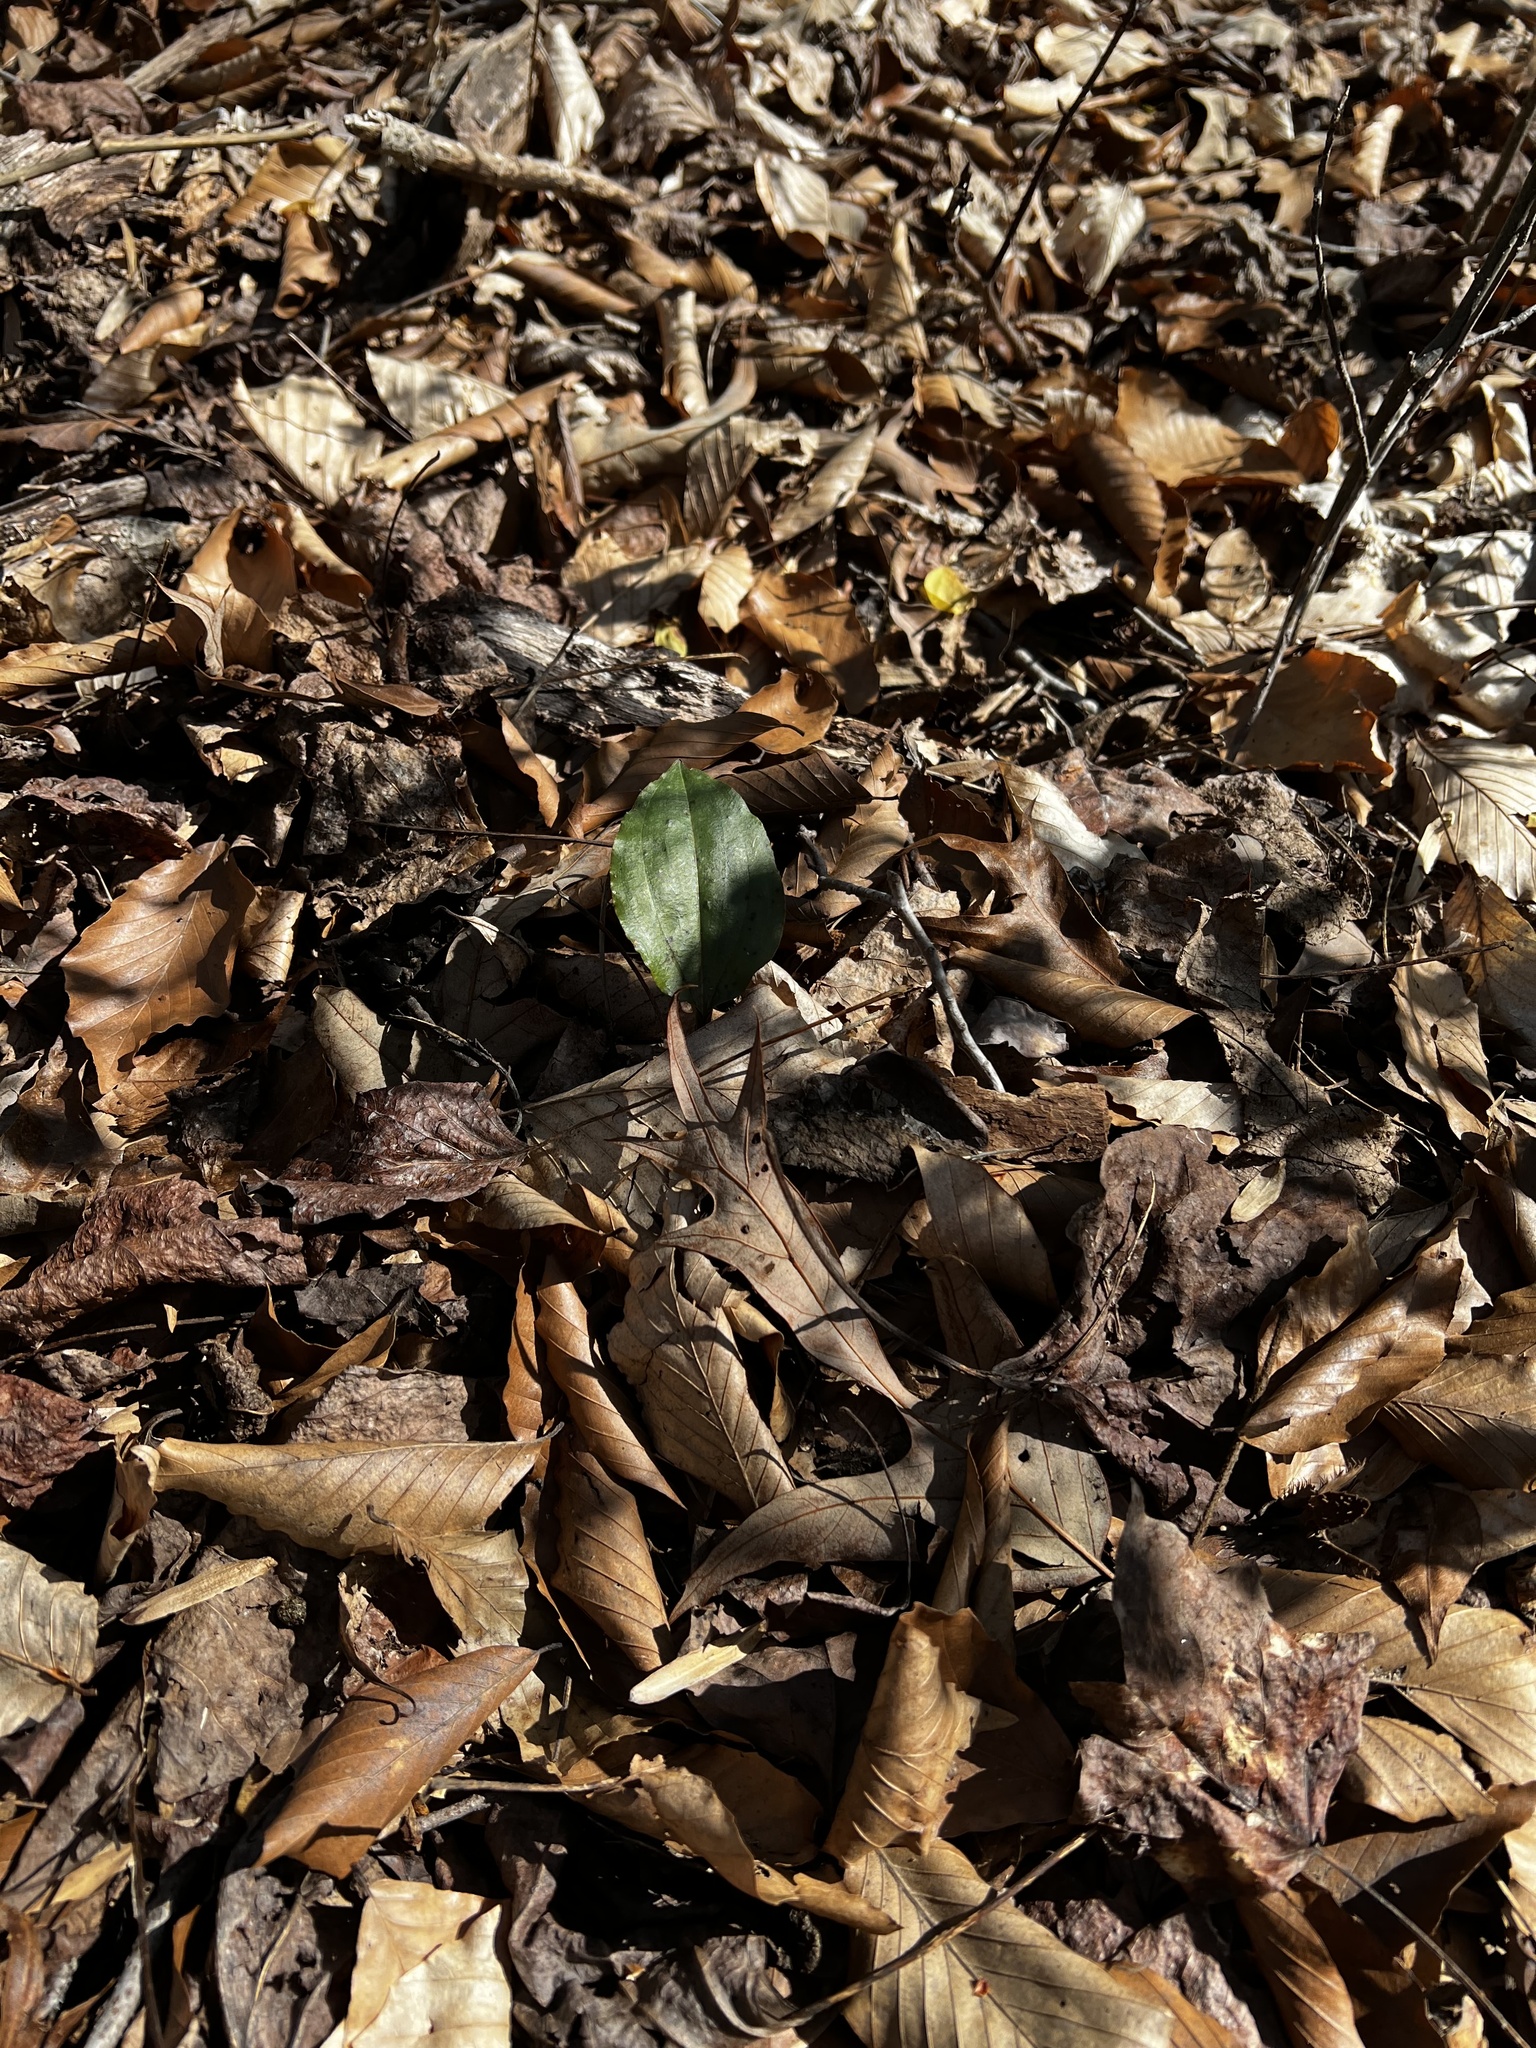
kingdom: Plantae
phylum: Tracheophyta
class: Liliopsida
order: Asparagales
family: Orchidaceae
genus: Tipularia
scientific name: Tipularia discolor
